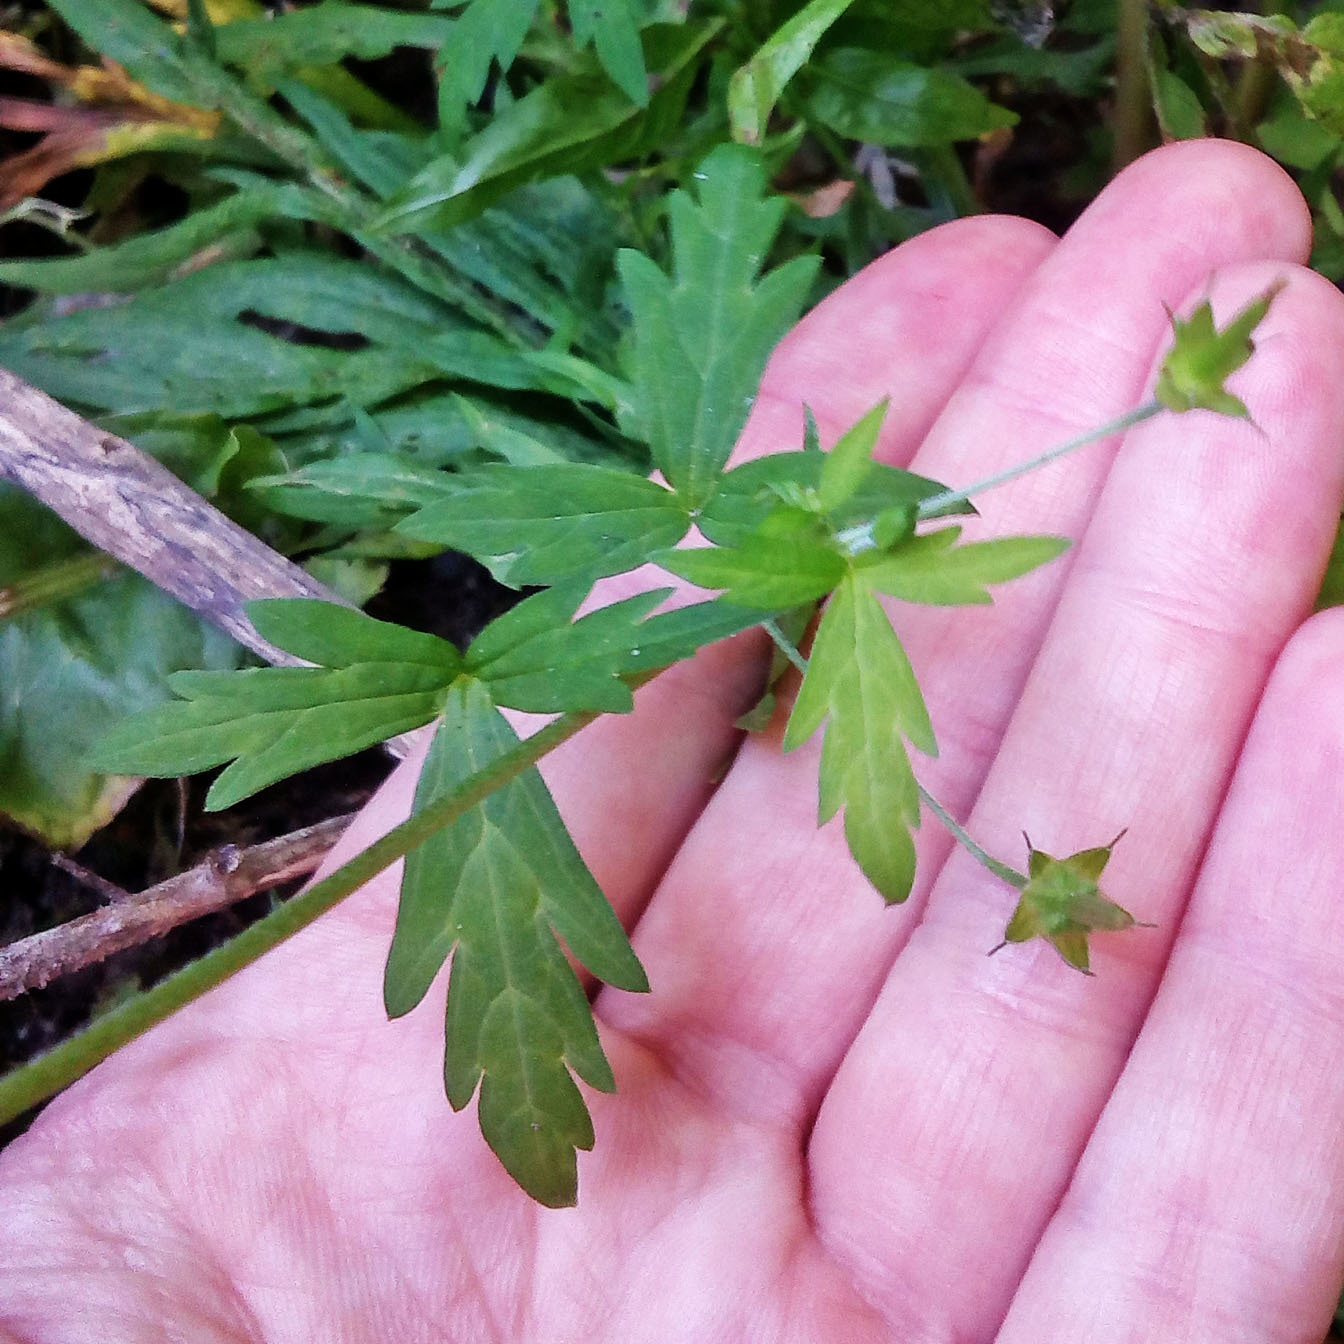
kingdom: Plantae
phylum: Tracheophyta
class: Magnoliopsida
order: Geraniales
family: Geraniaceae
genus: Geranium
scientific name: Geranium sibiricum
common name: Siberian crane's-bill
